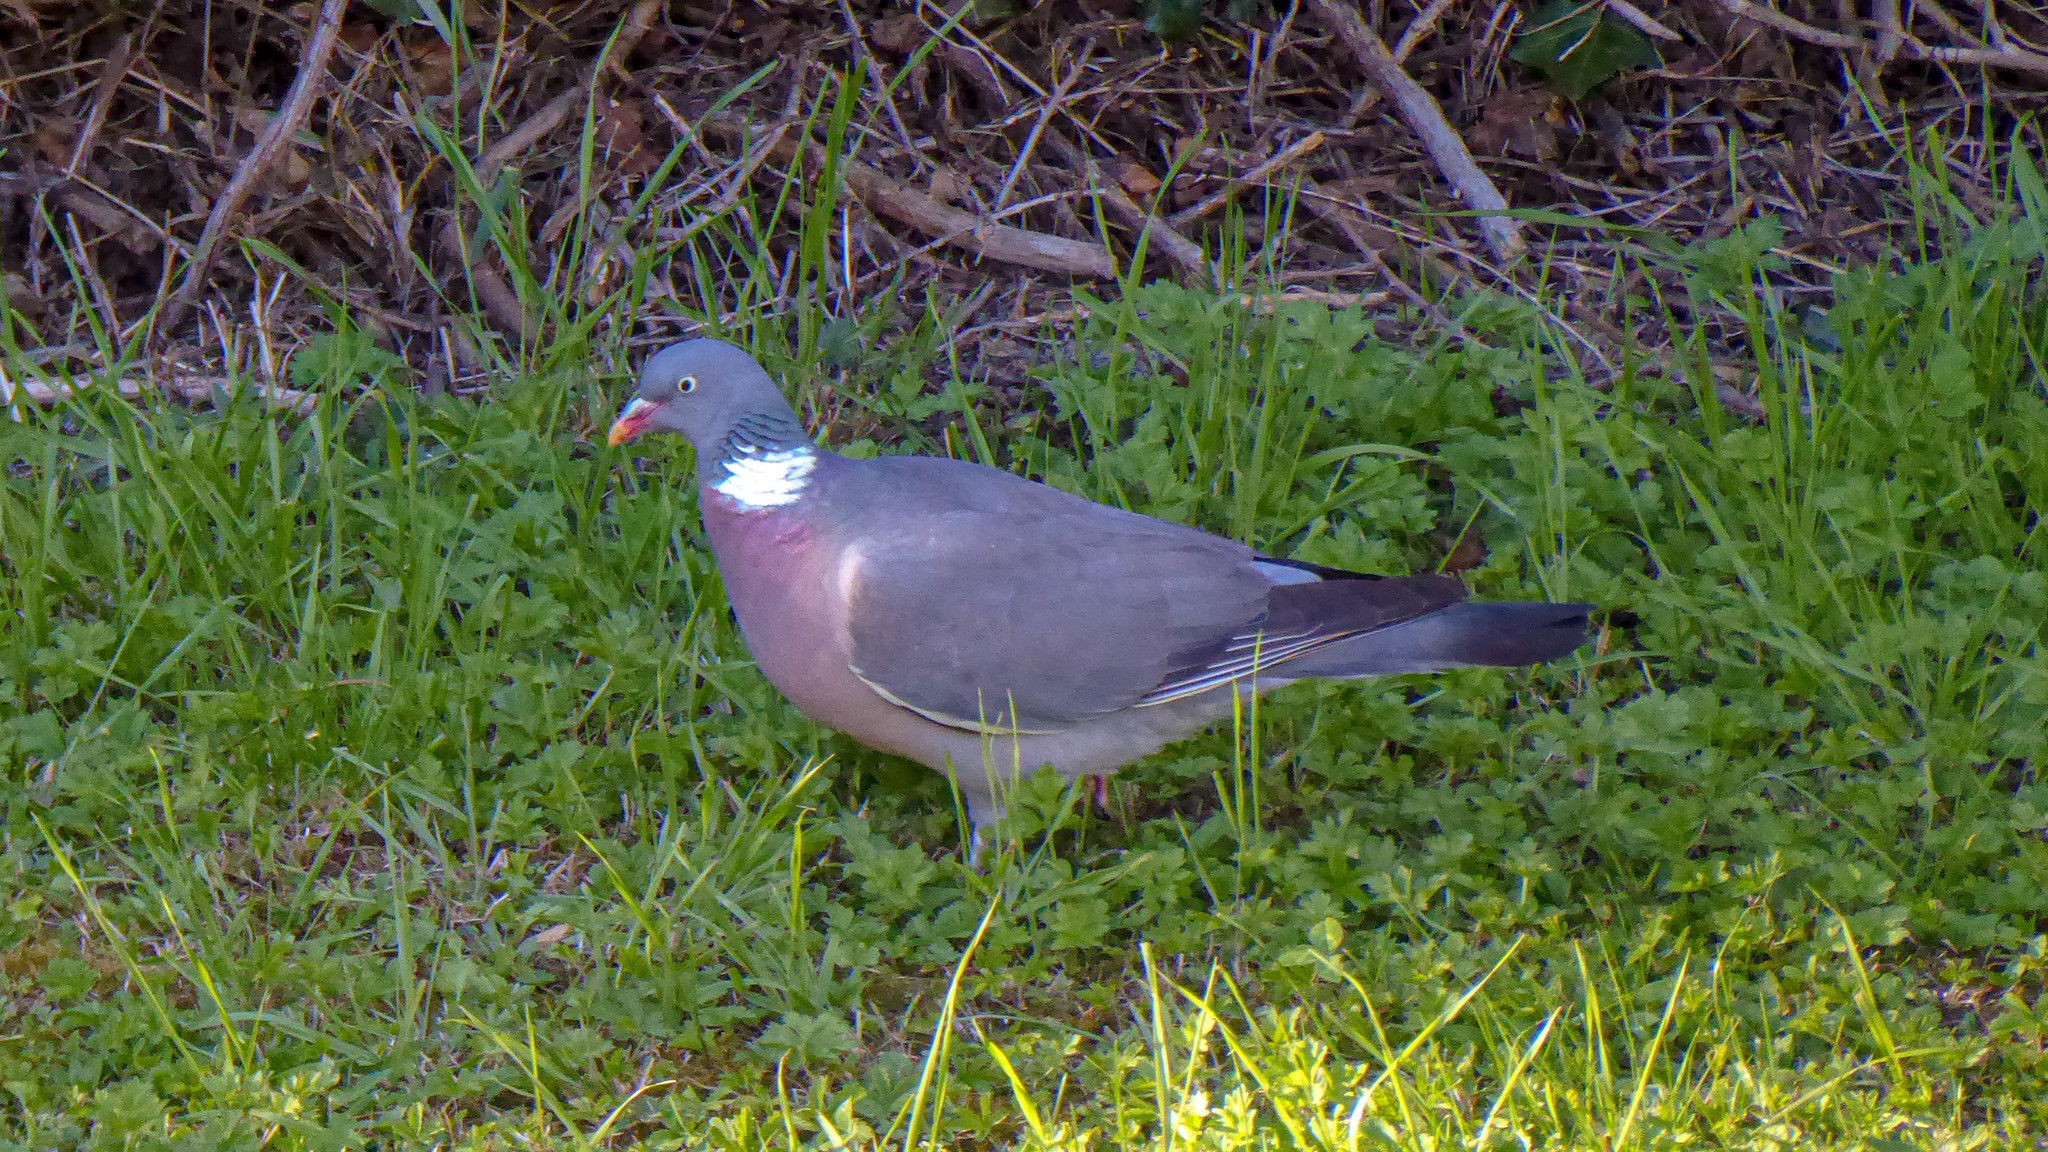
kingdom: Animalia
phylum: Chordata
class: Aves
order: Columbiformes
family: Columbidae
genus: Columba
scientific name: Columba palumbus
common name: Common wood pigeon
